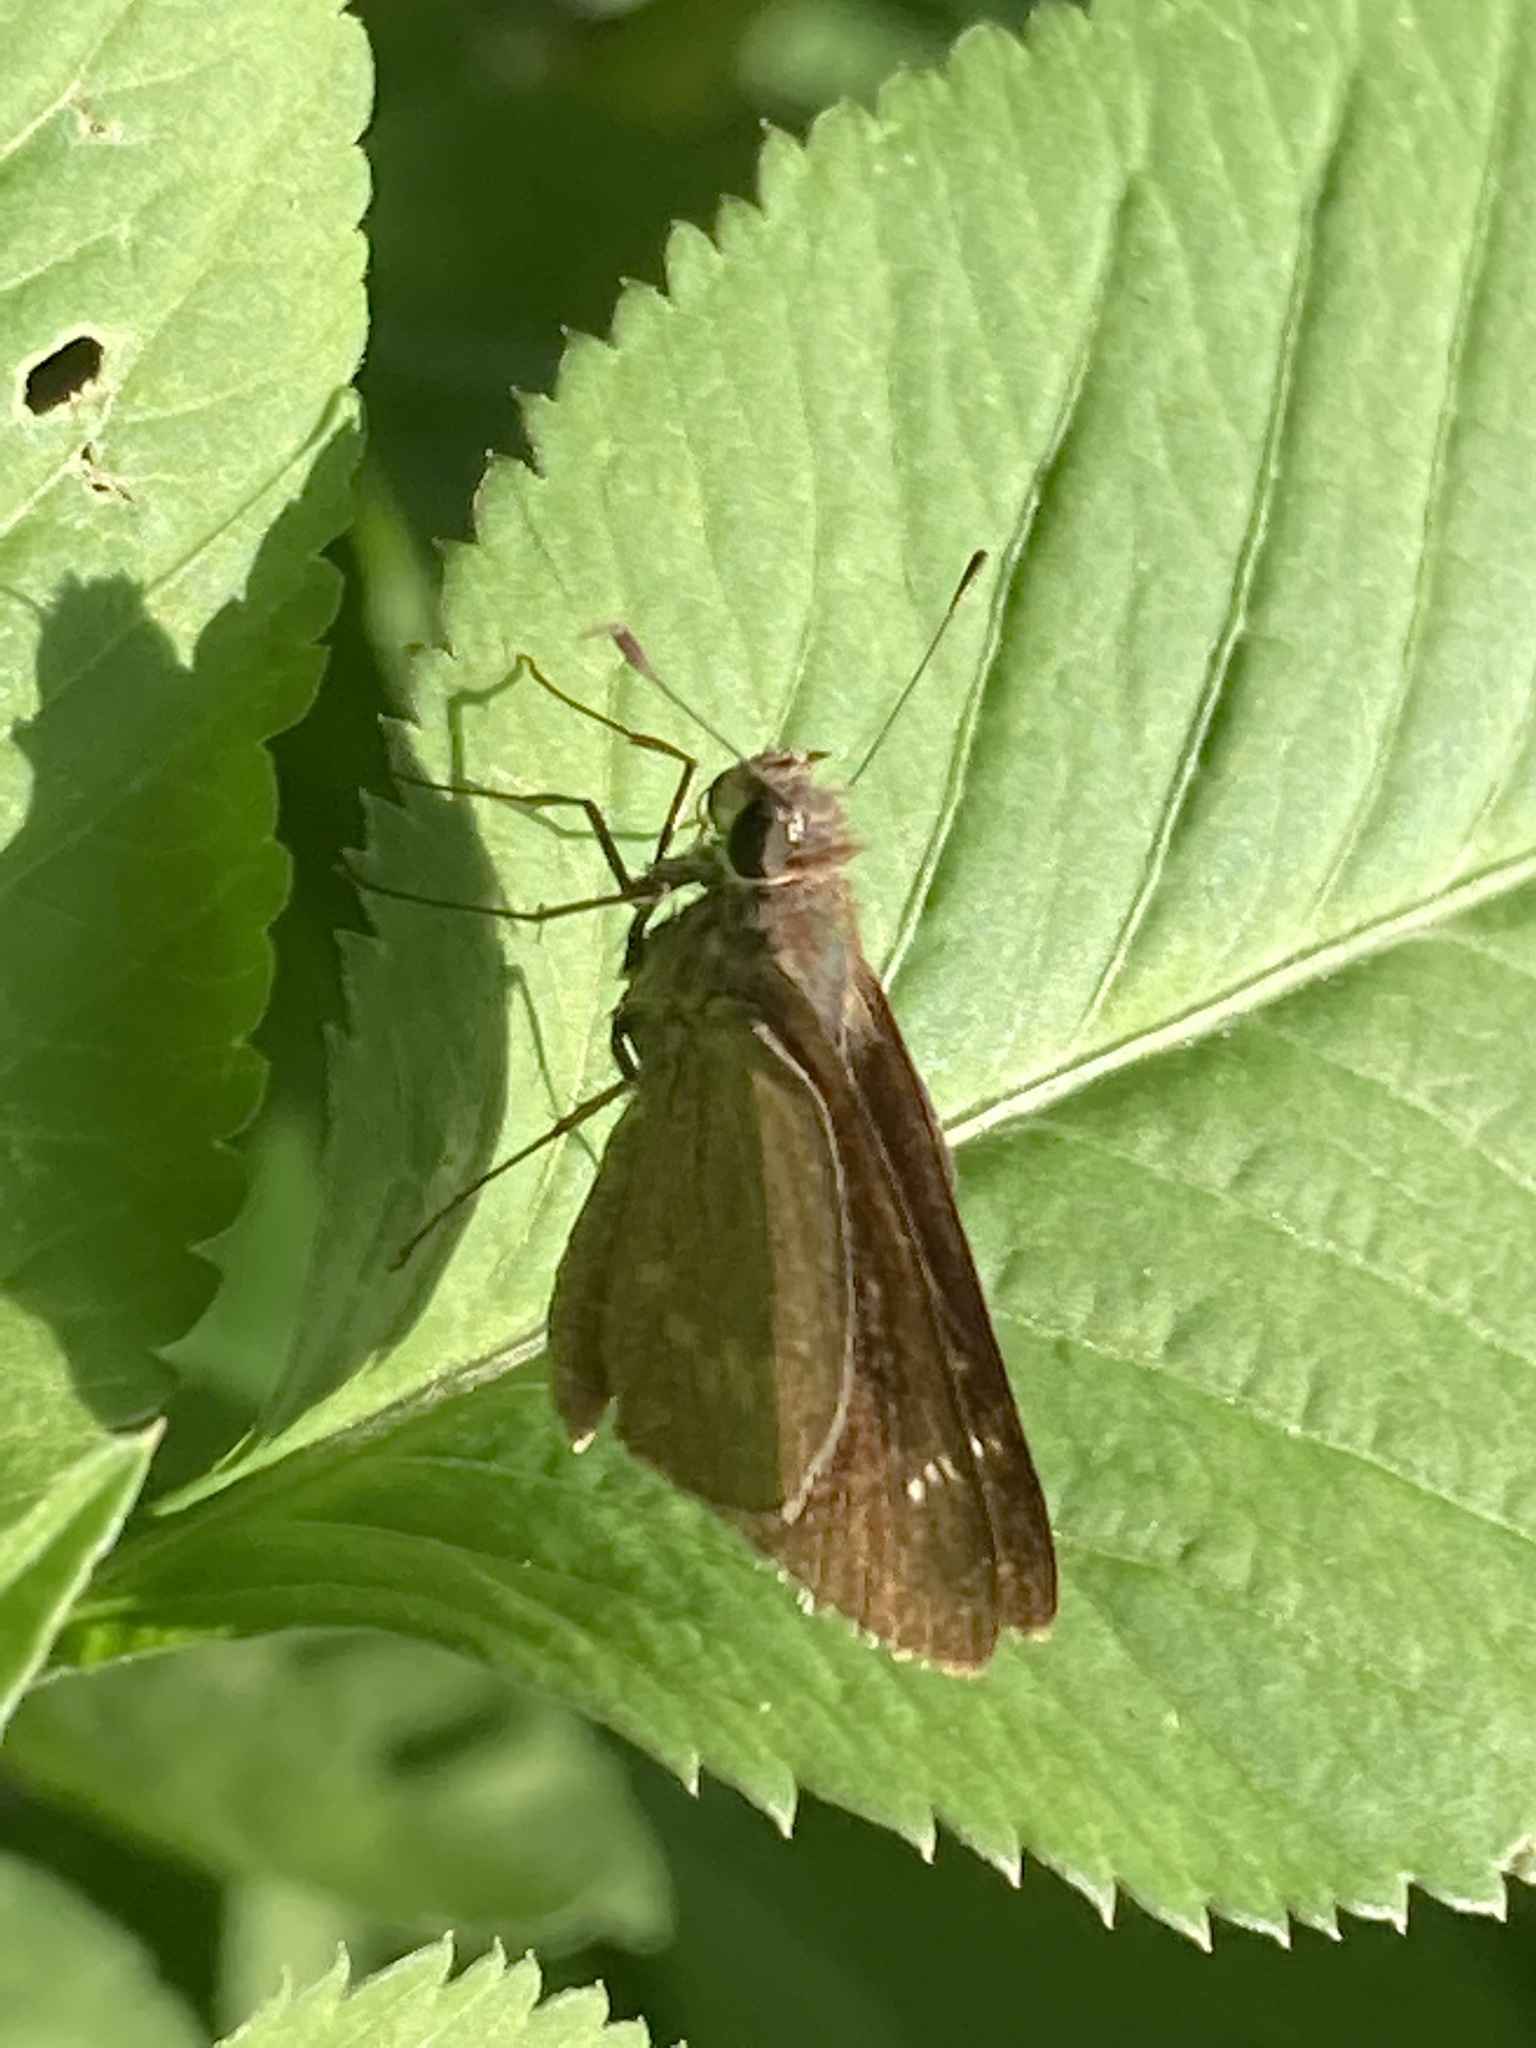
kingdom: Animalia
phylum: Arthropoda
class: Insecta
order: Lepidoptera
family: Hesperiidae
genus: Cymaenes
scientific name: Cymaenes tripunctus
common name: Dingy dotted skipper
